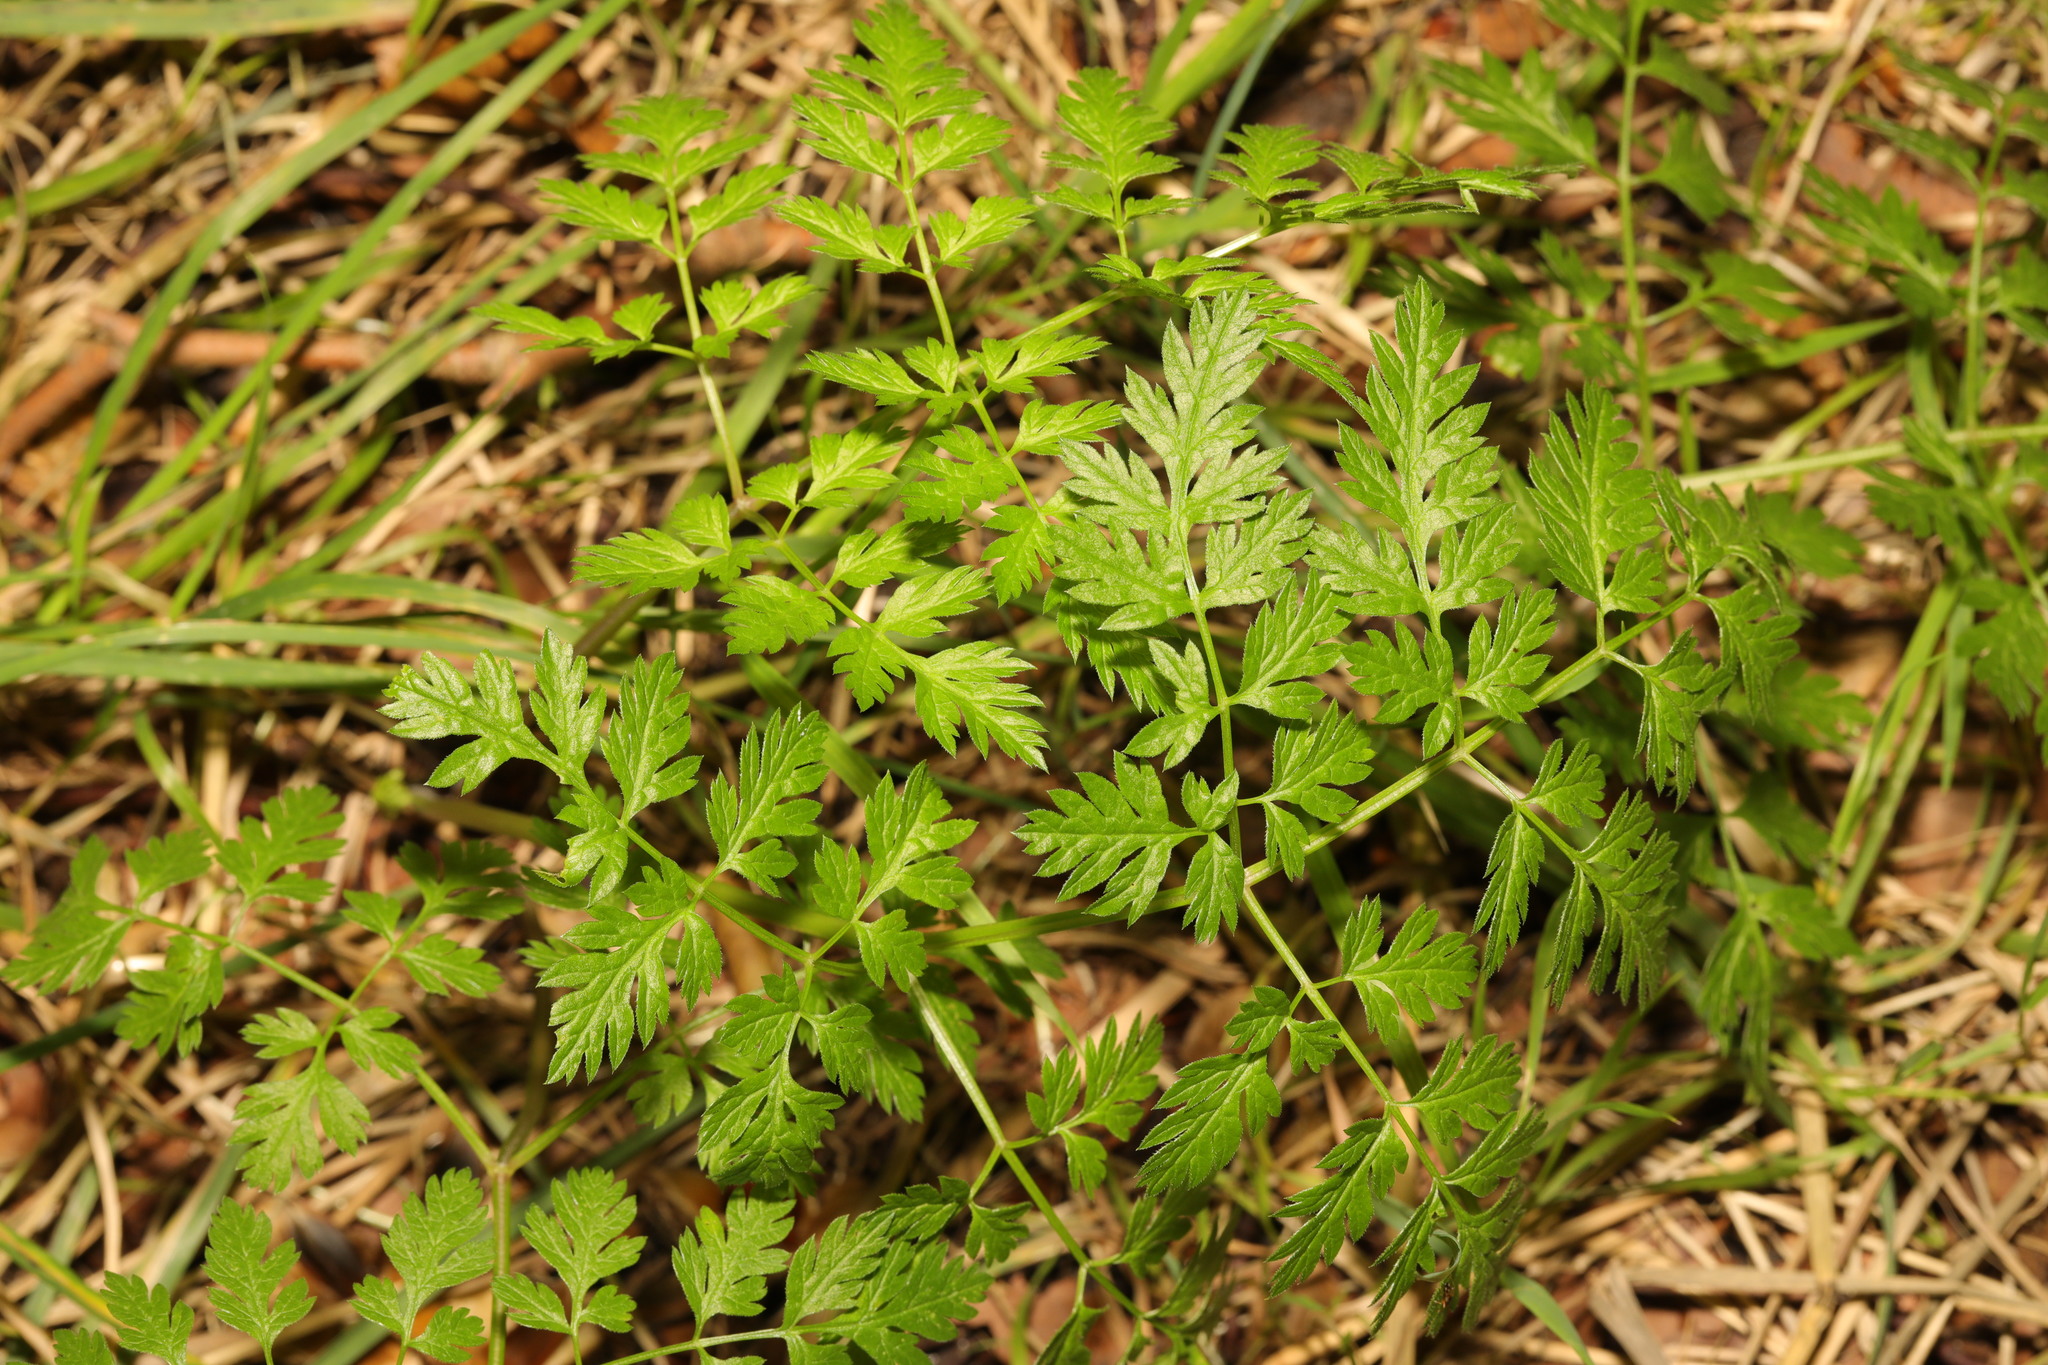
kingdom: Plantae
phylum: Tracheophyta
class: Magnoliopsida
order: Apiales
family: Apiaceae
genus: Anthriscus
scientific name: Anthriscus sylvestris
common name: Cow parsley
